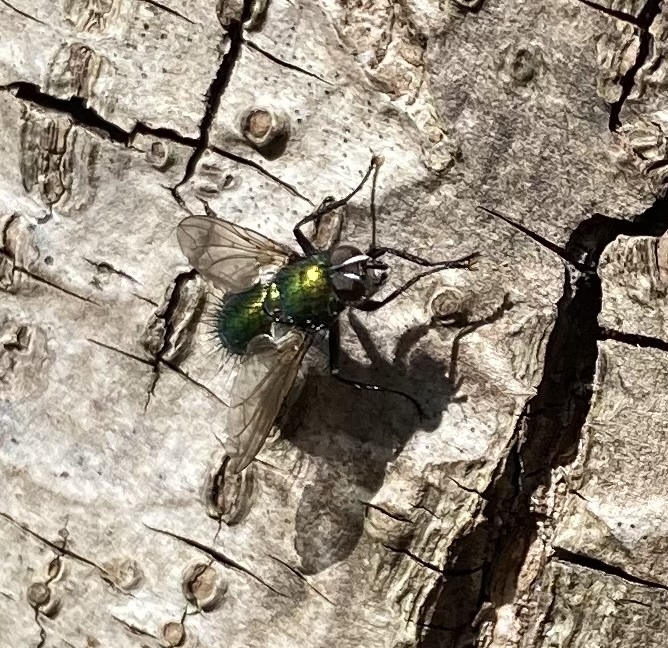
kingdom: Animalia
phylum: Arthropoda
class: Insecta
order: Diptera
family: Tachinidae
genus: Gymnocheta
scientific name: Gymnocheta viridis
